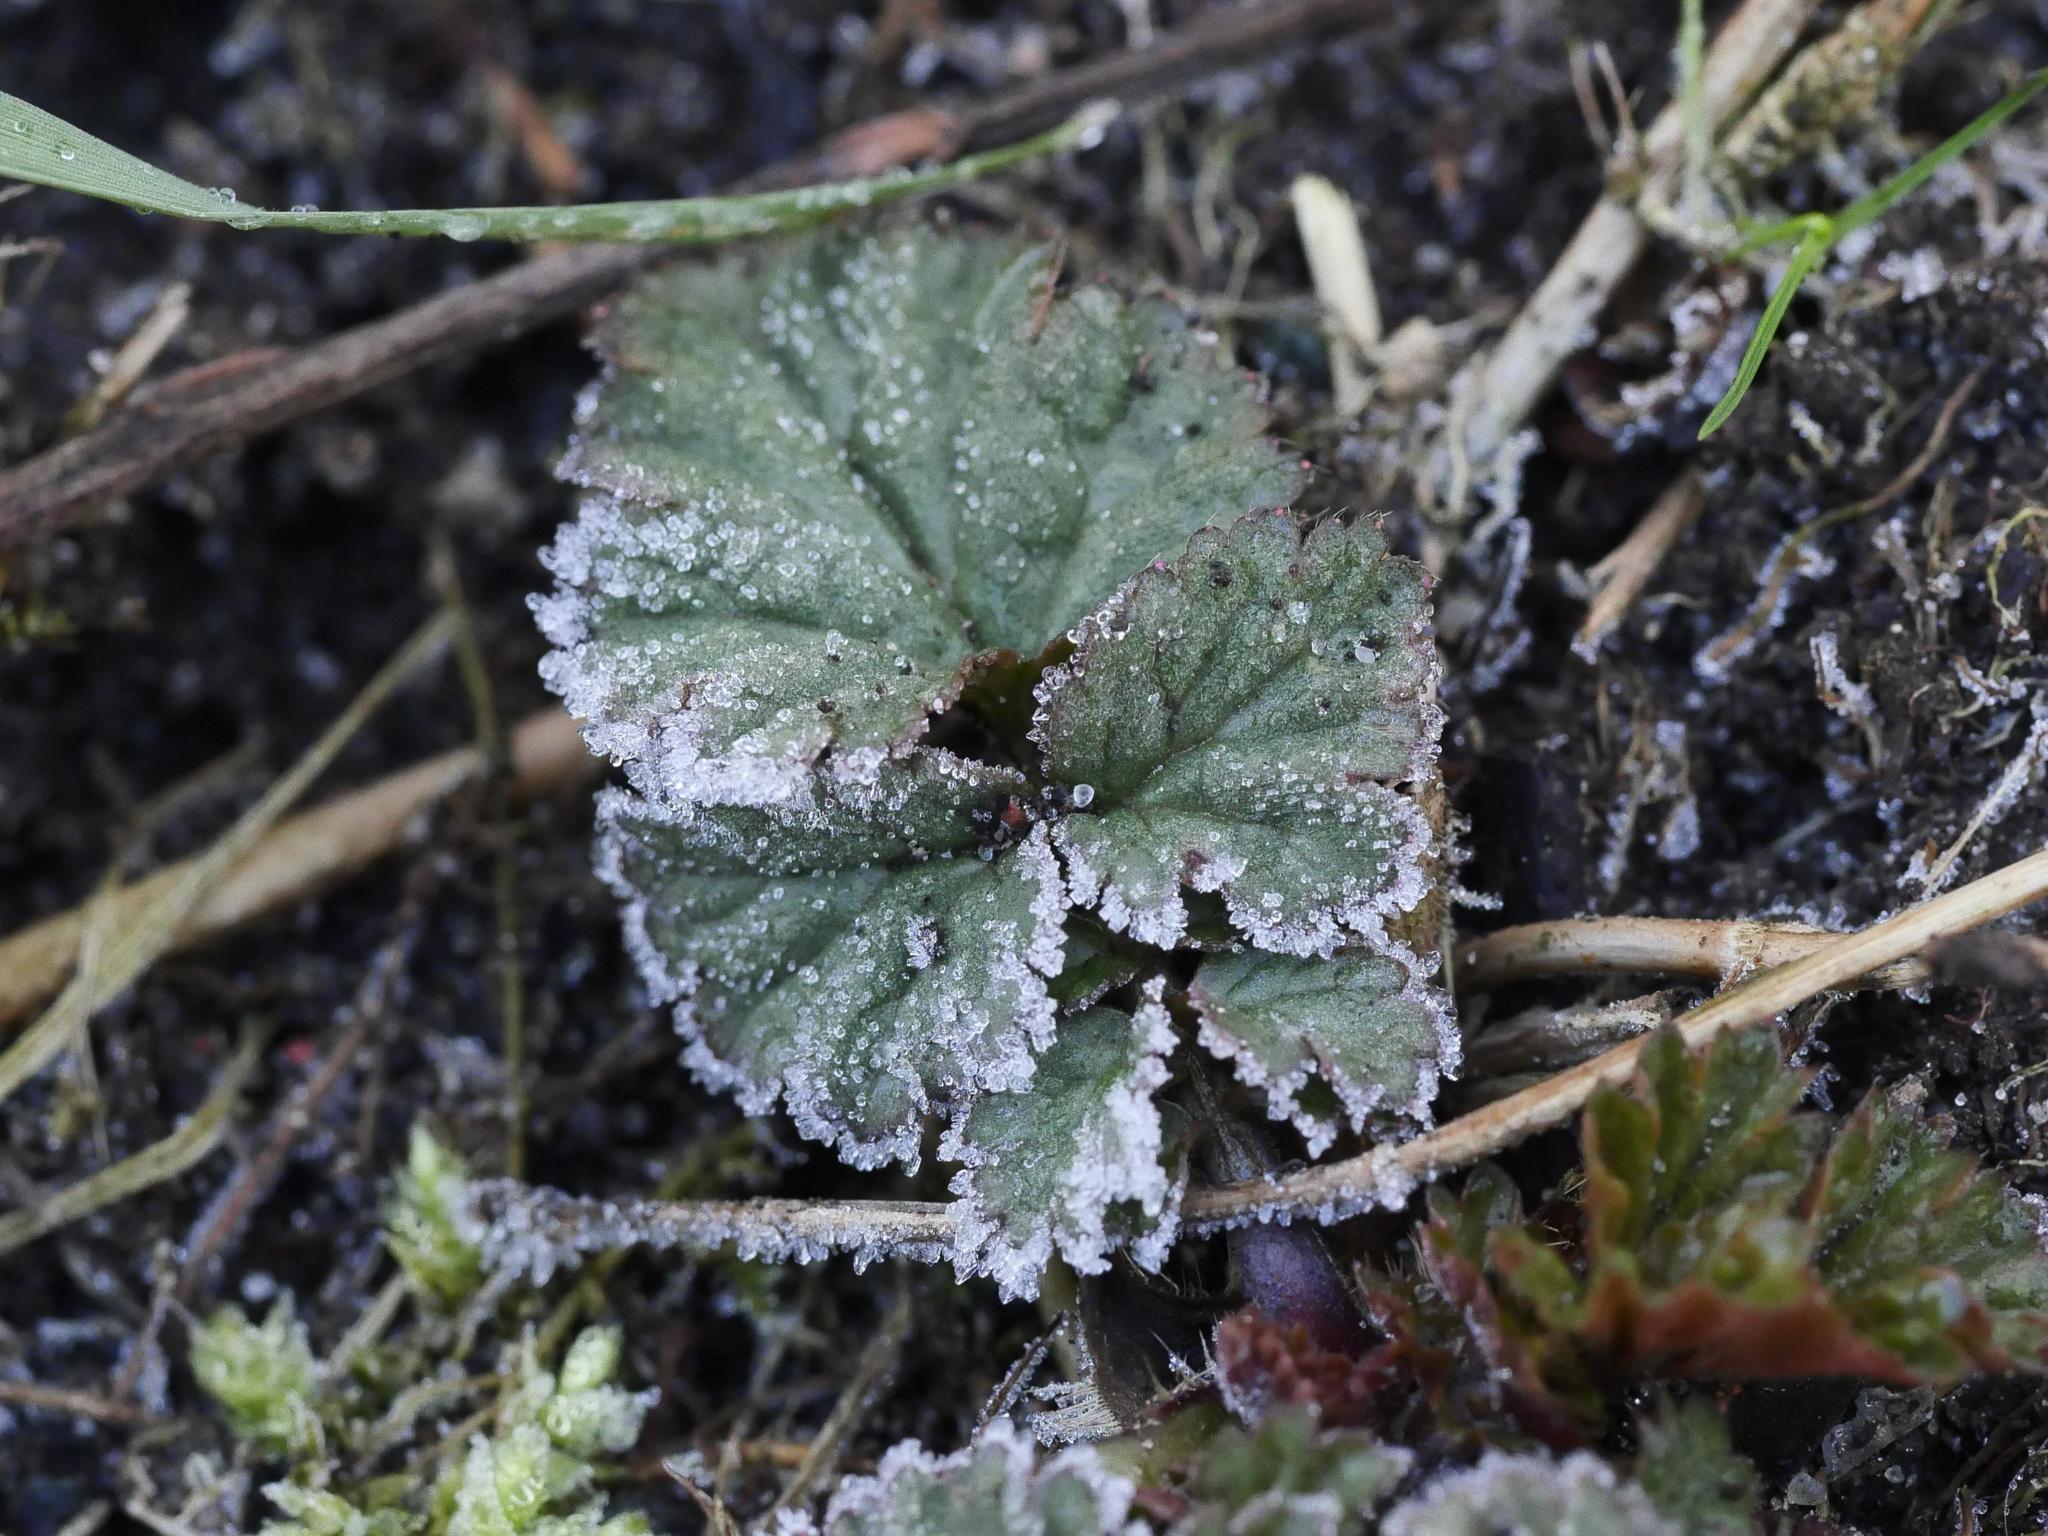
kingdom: Plantae
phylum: Tracheophyta
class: Magnoliopsida
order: Rosales
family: Rosaceae
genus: Geum
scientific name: Geum urbanum
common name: Wood avens
